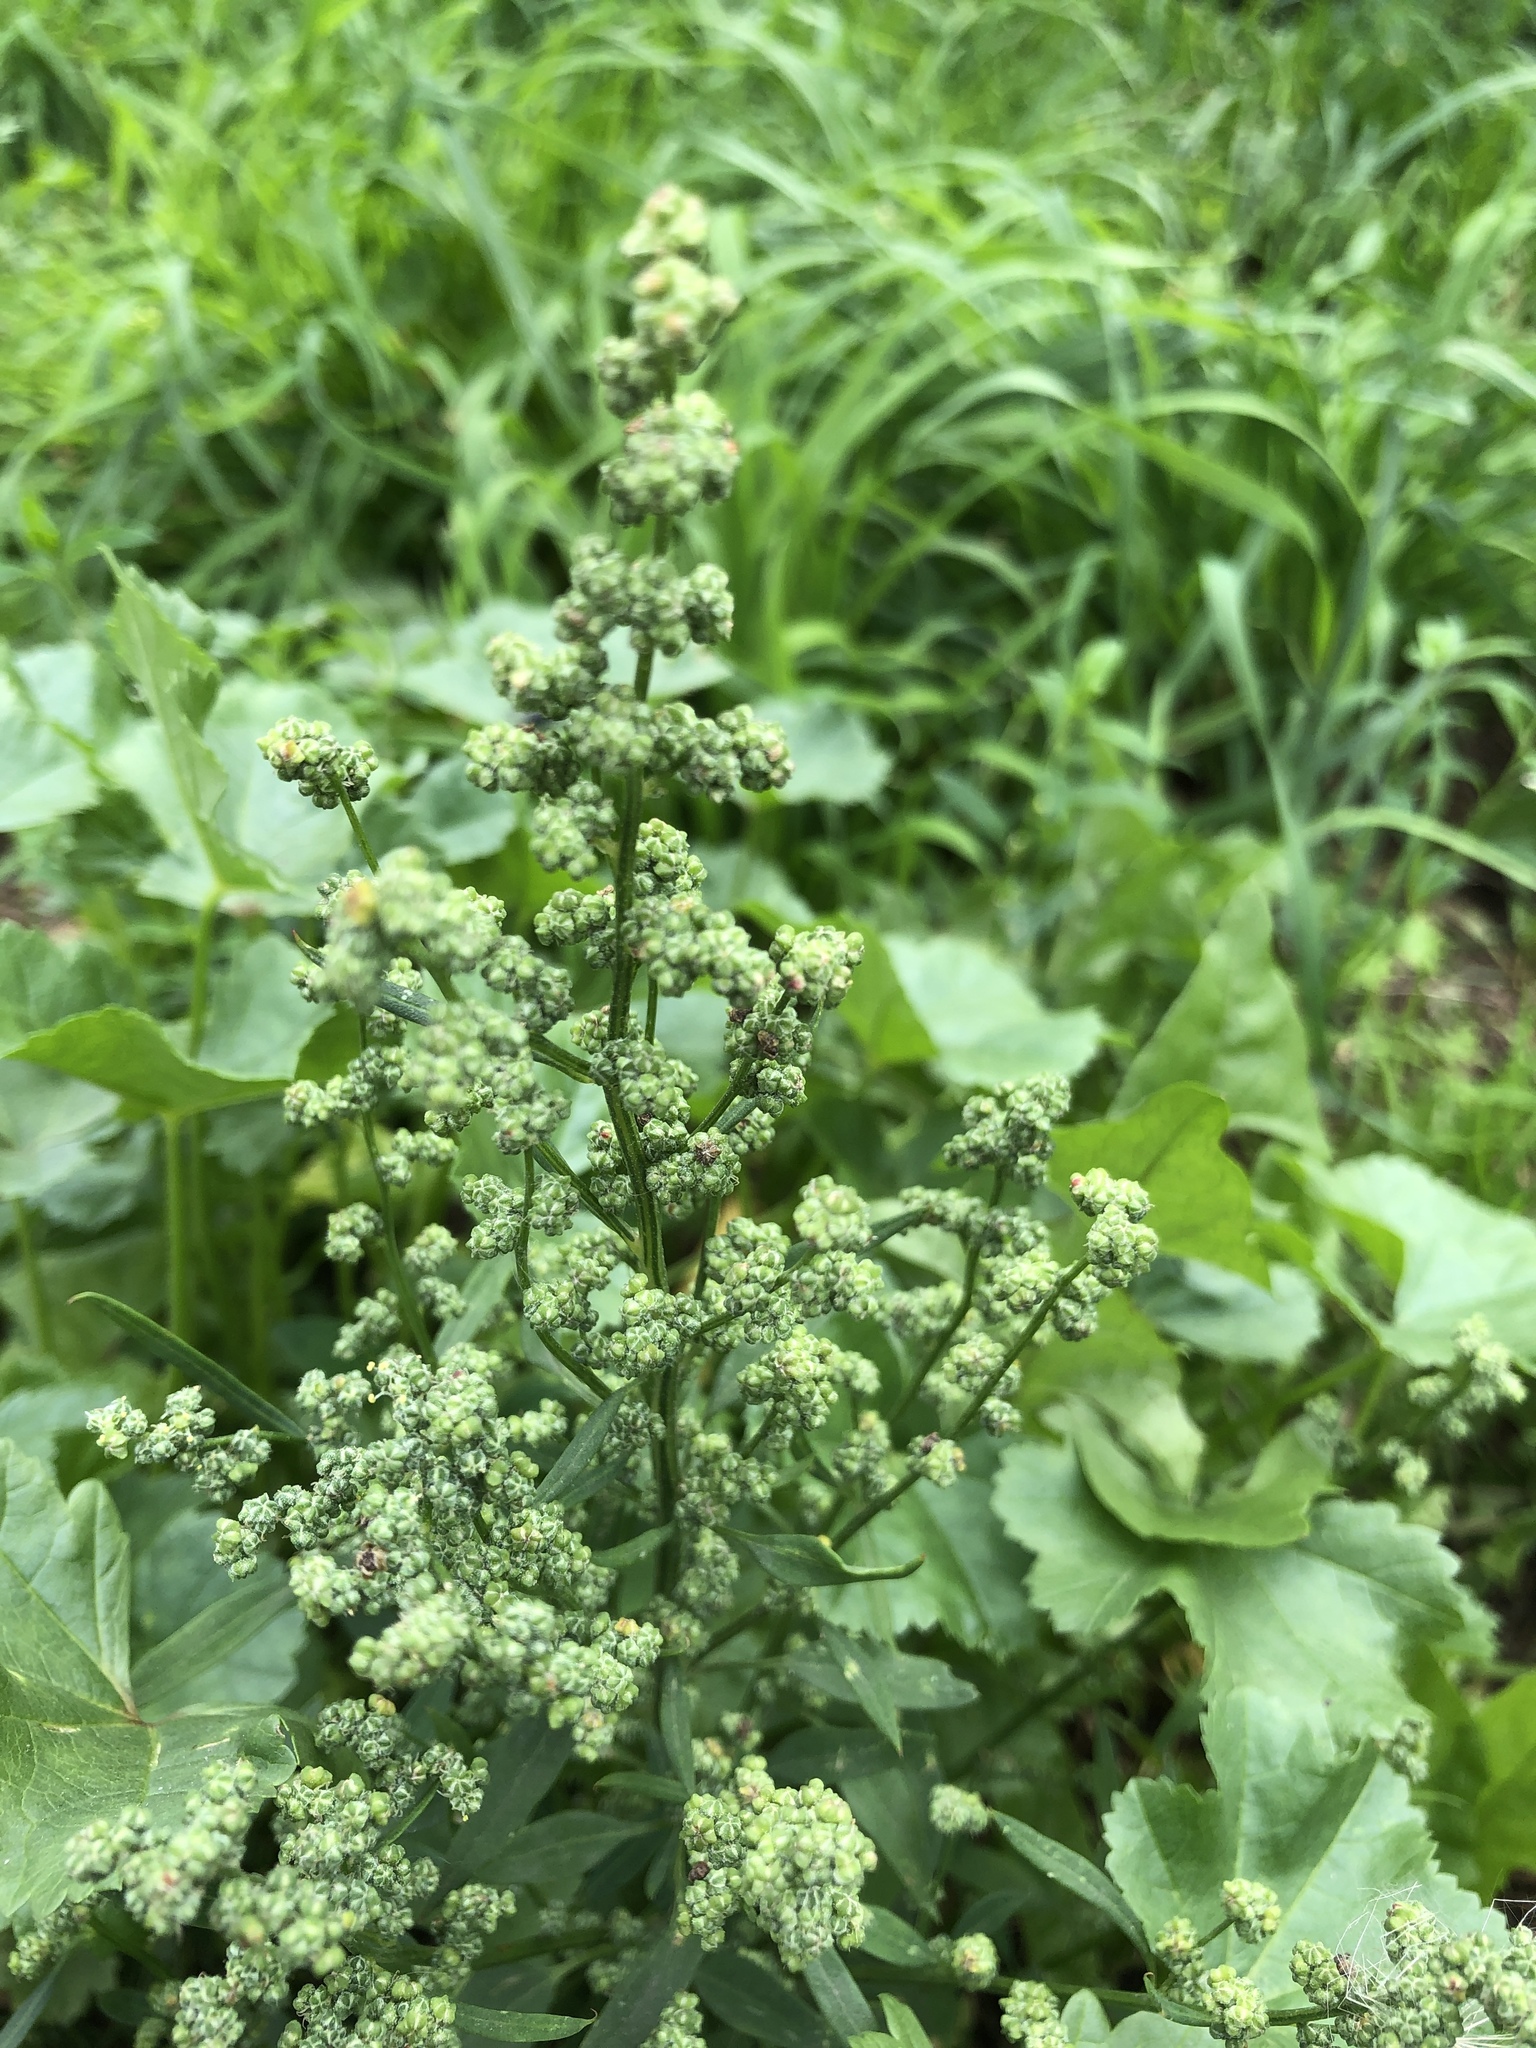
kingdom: Plantae
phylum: Tracheophyta
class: Magnoliopsida
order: Caryophyllales
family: Amaranthaceae
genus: Chenopodium
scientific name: Chenopodium album
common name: Fat-hen
